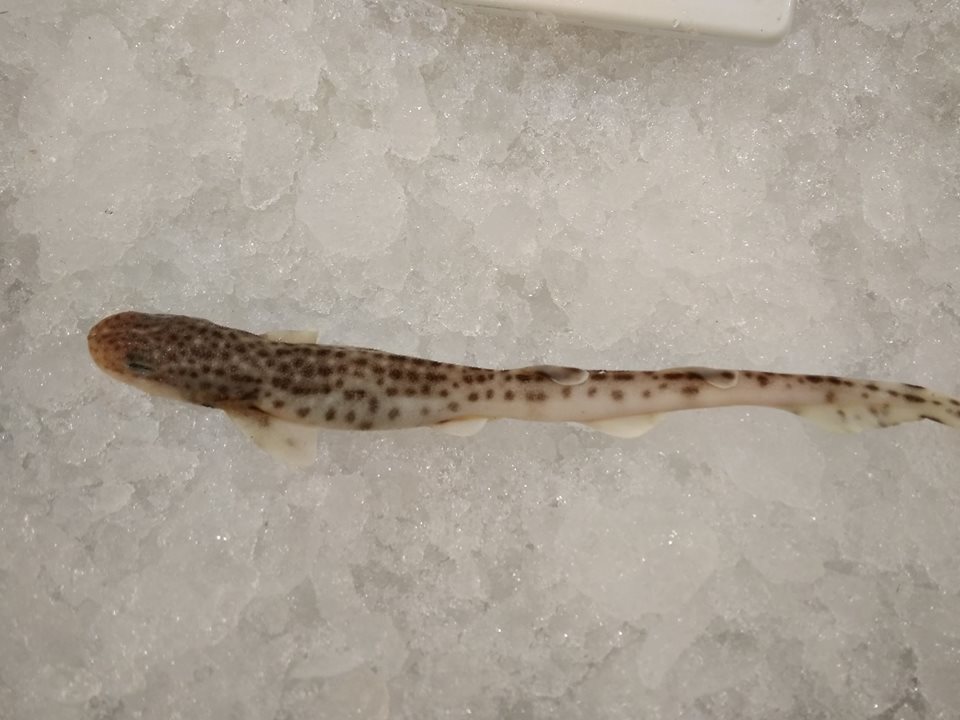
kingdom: Animalia
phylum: Chordata
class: Elasmobranchii
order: Carcharhiniformes
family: Scyliorhinidae
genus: Scyliorhinus
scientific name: Scyliorhinus canicula
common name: Lesser spotted dogfish
